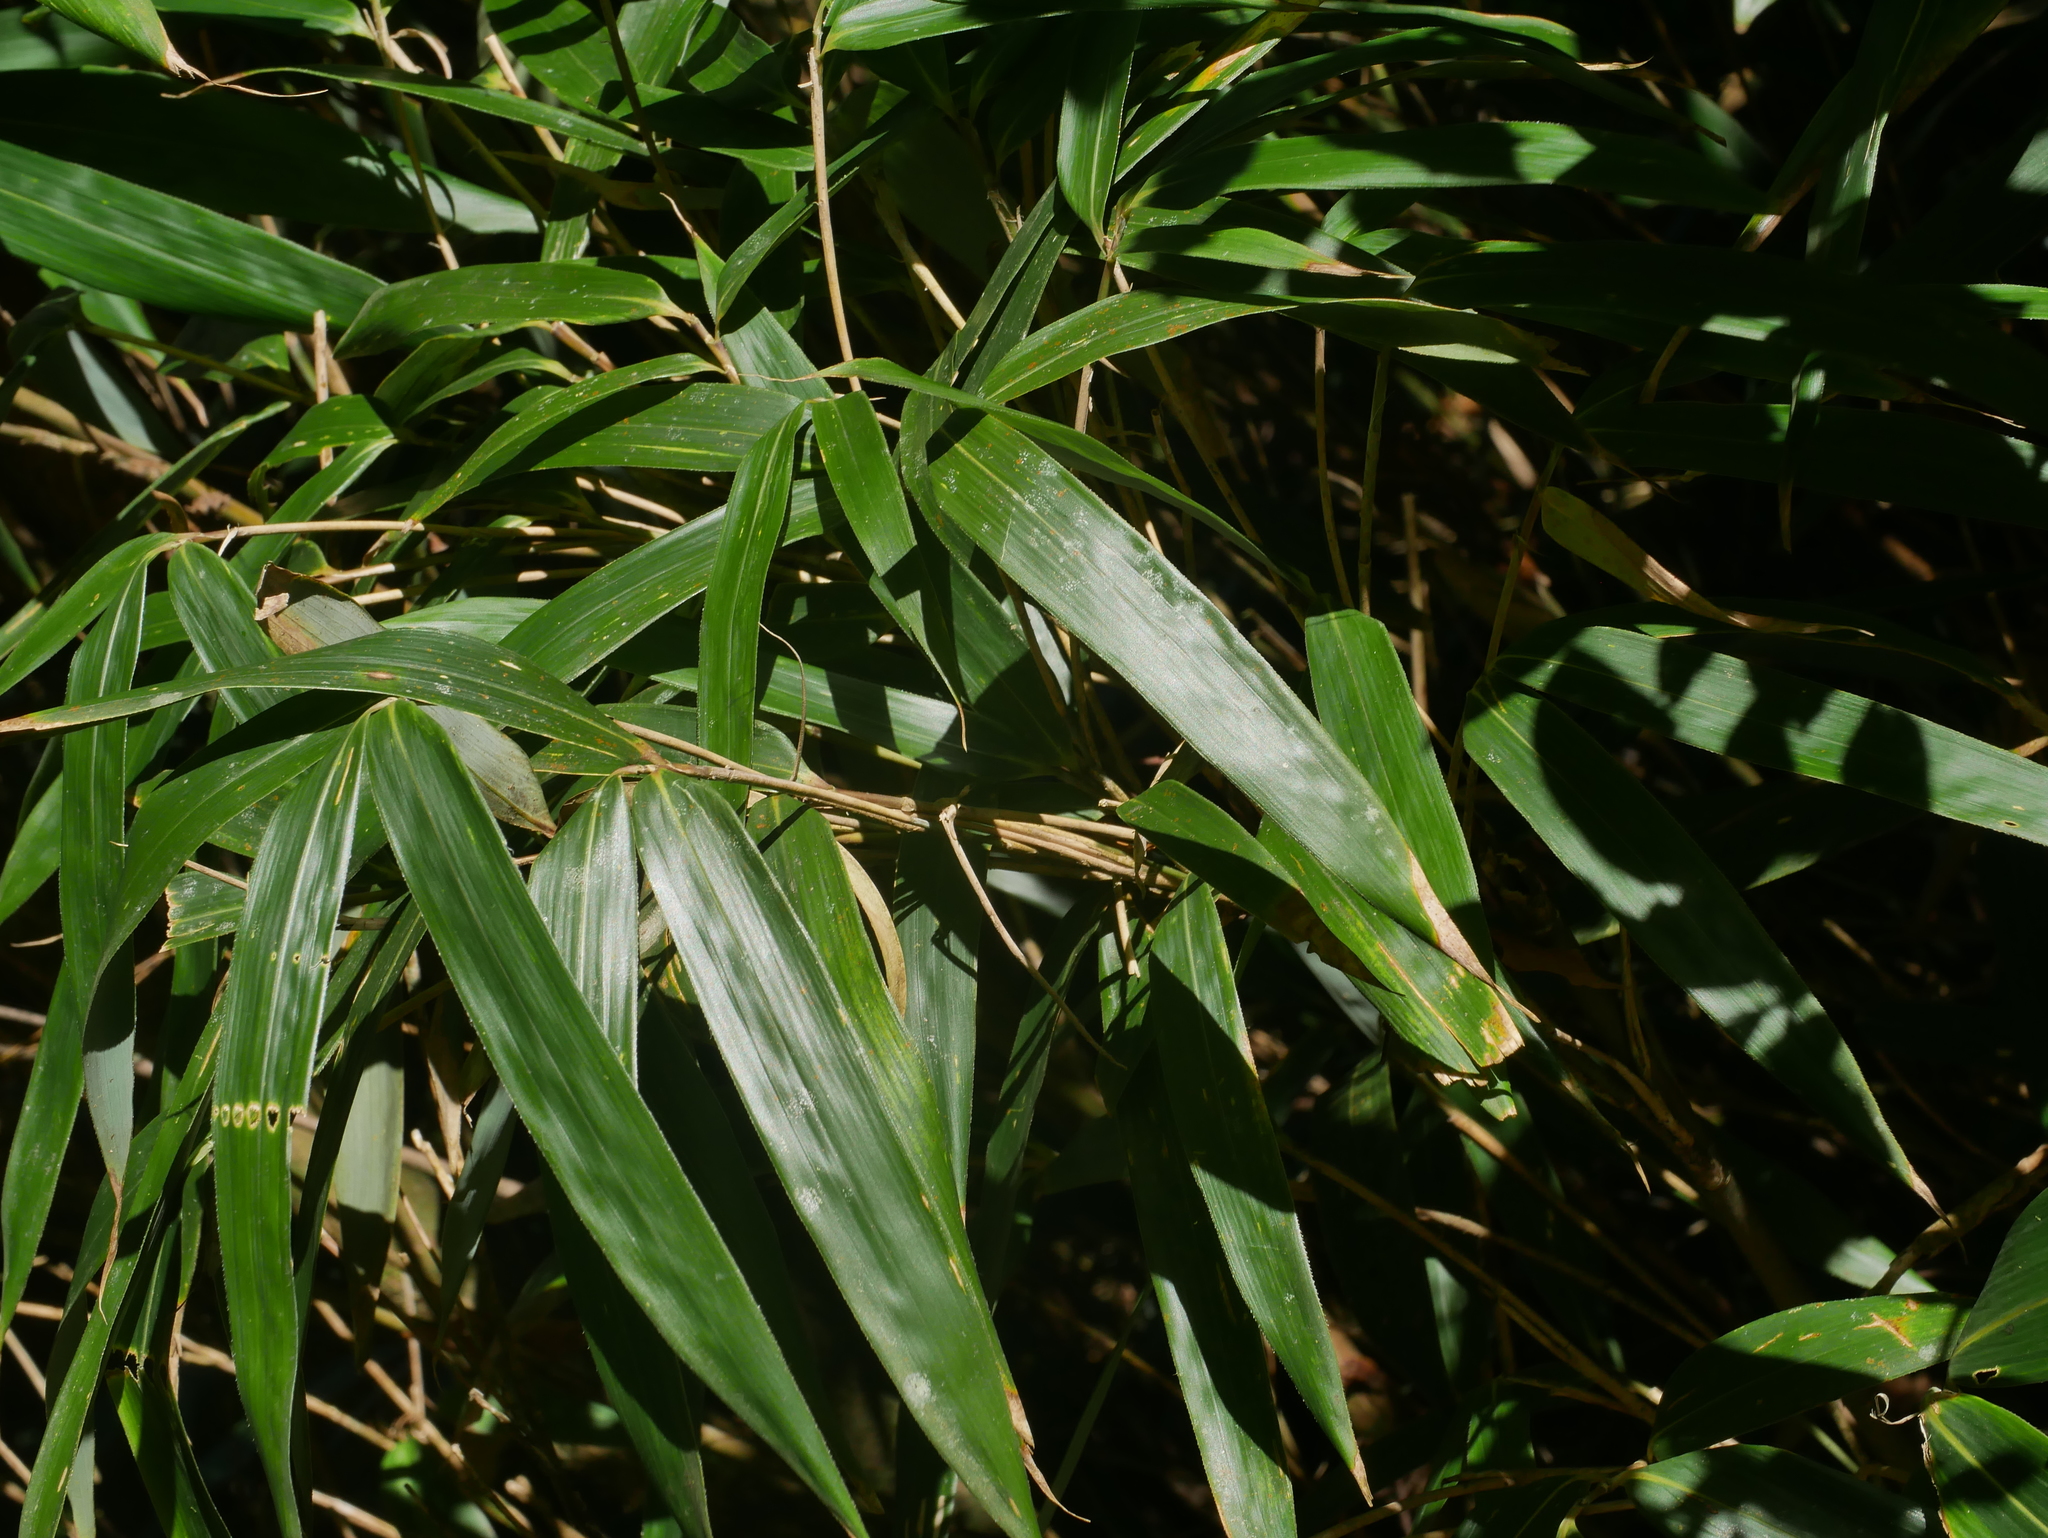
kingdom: Plantae
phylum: Tracheophyta
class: Liliopsida
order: Poales
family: Poaceae
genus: Yushania
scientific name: Yushania niitakayamensis
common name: Yushan cane
